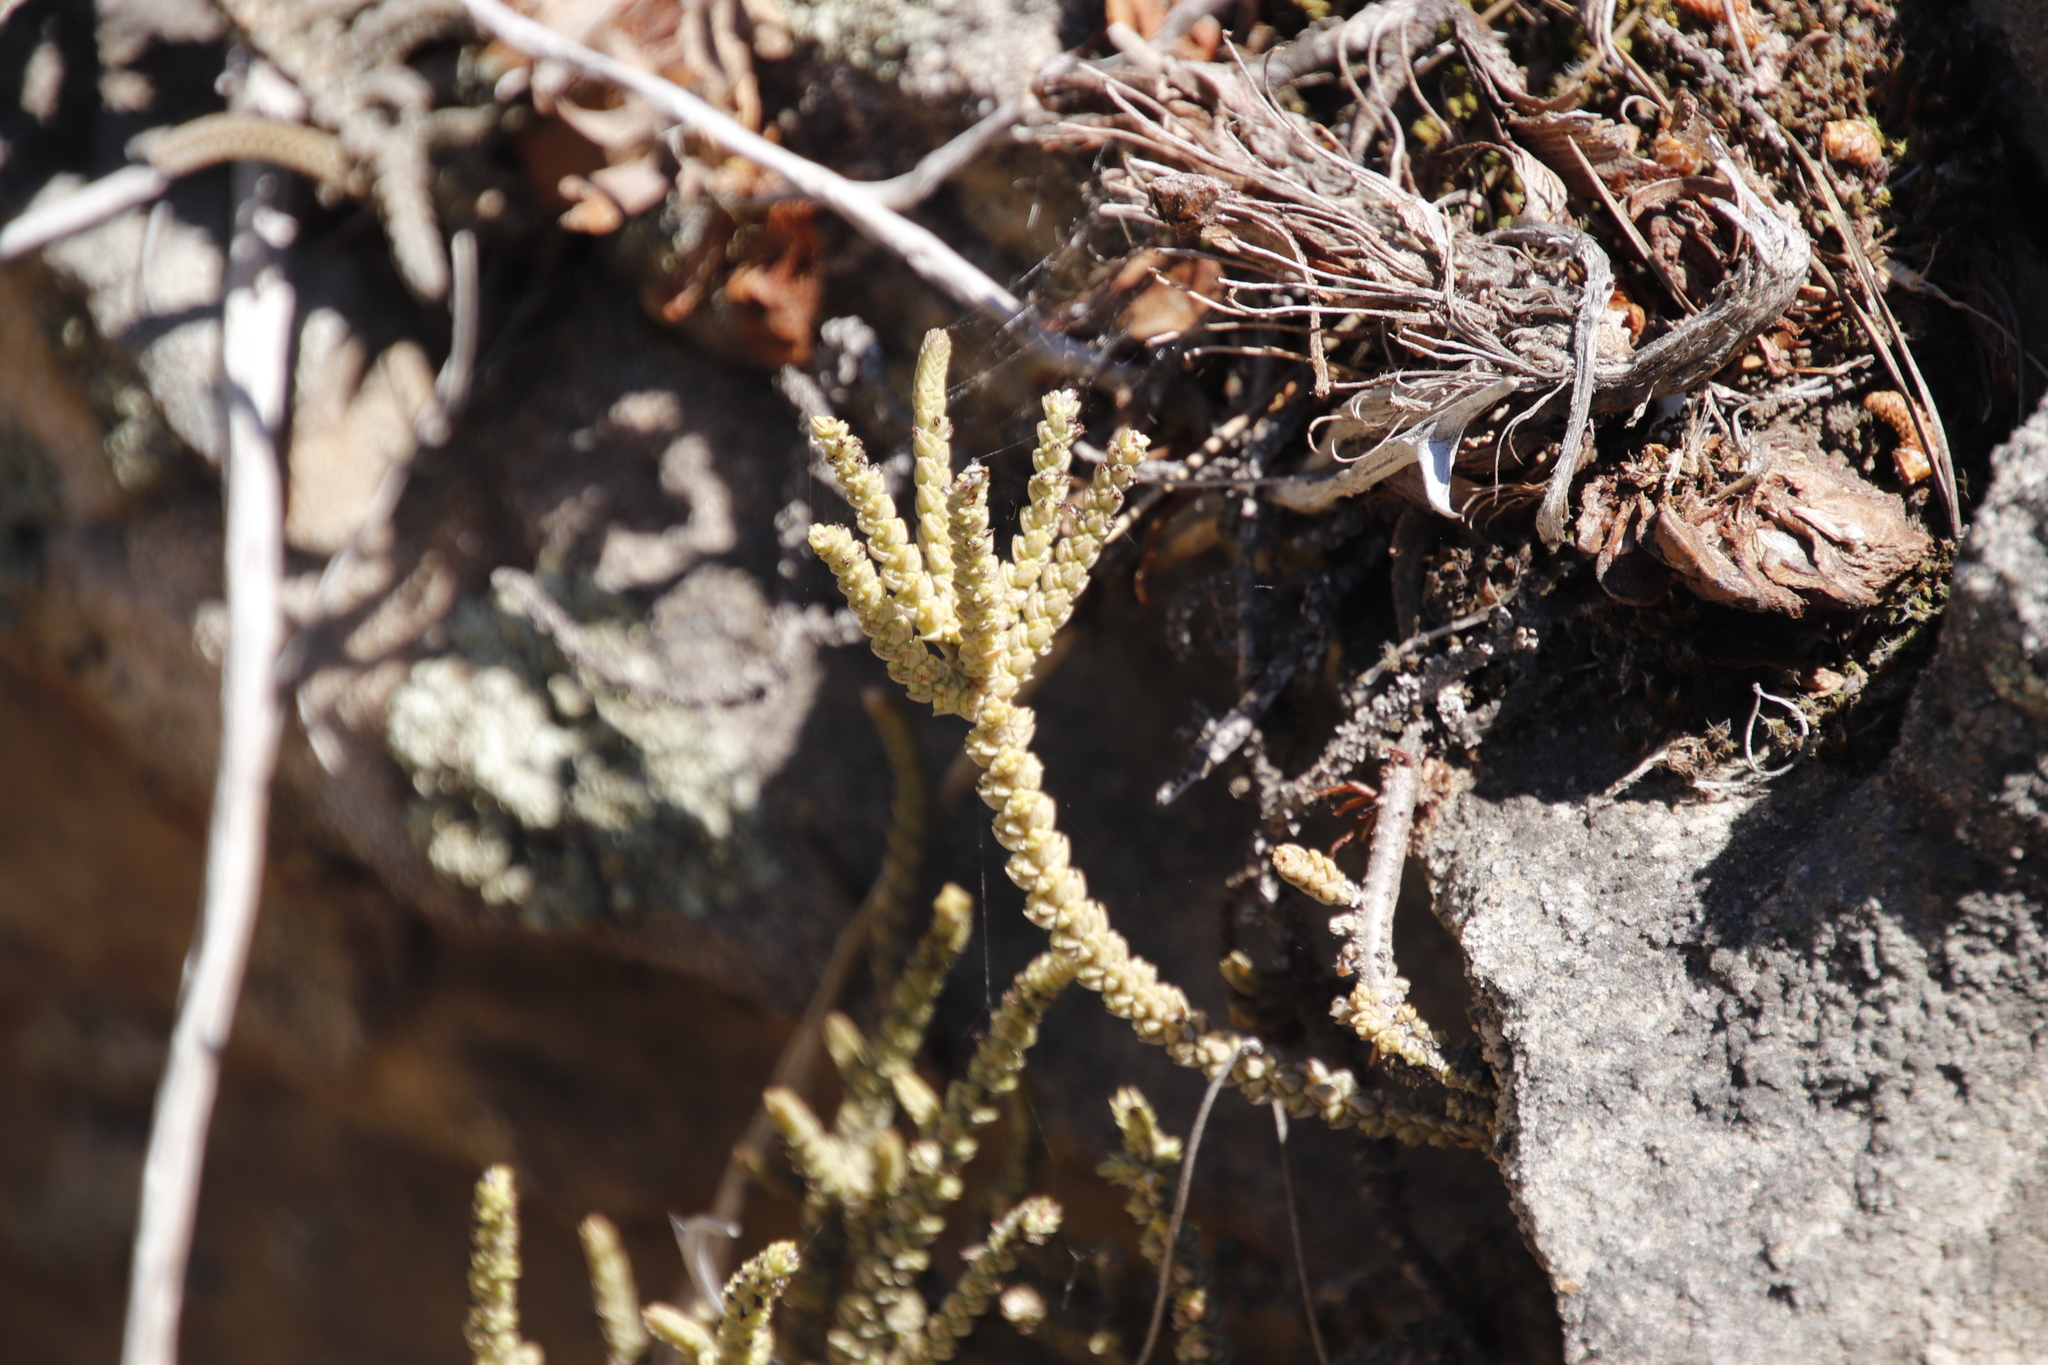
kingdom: Plantae
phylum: Tracheophyta
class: Magnoliopsida
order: Saxifragales
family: Crassulaceae
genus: Crassula
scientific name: Crassula muscosa
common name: Toy-cypress
